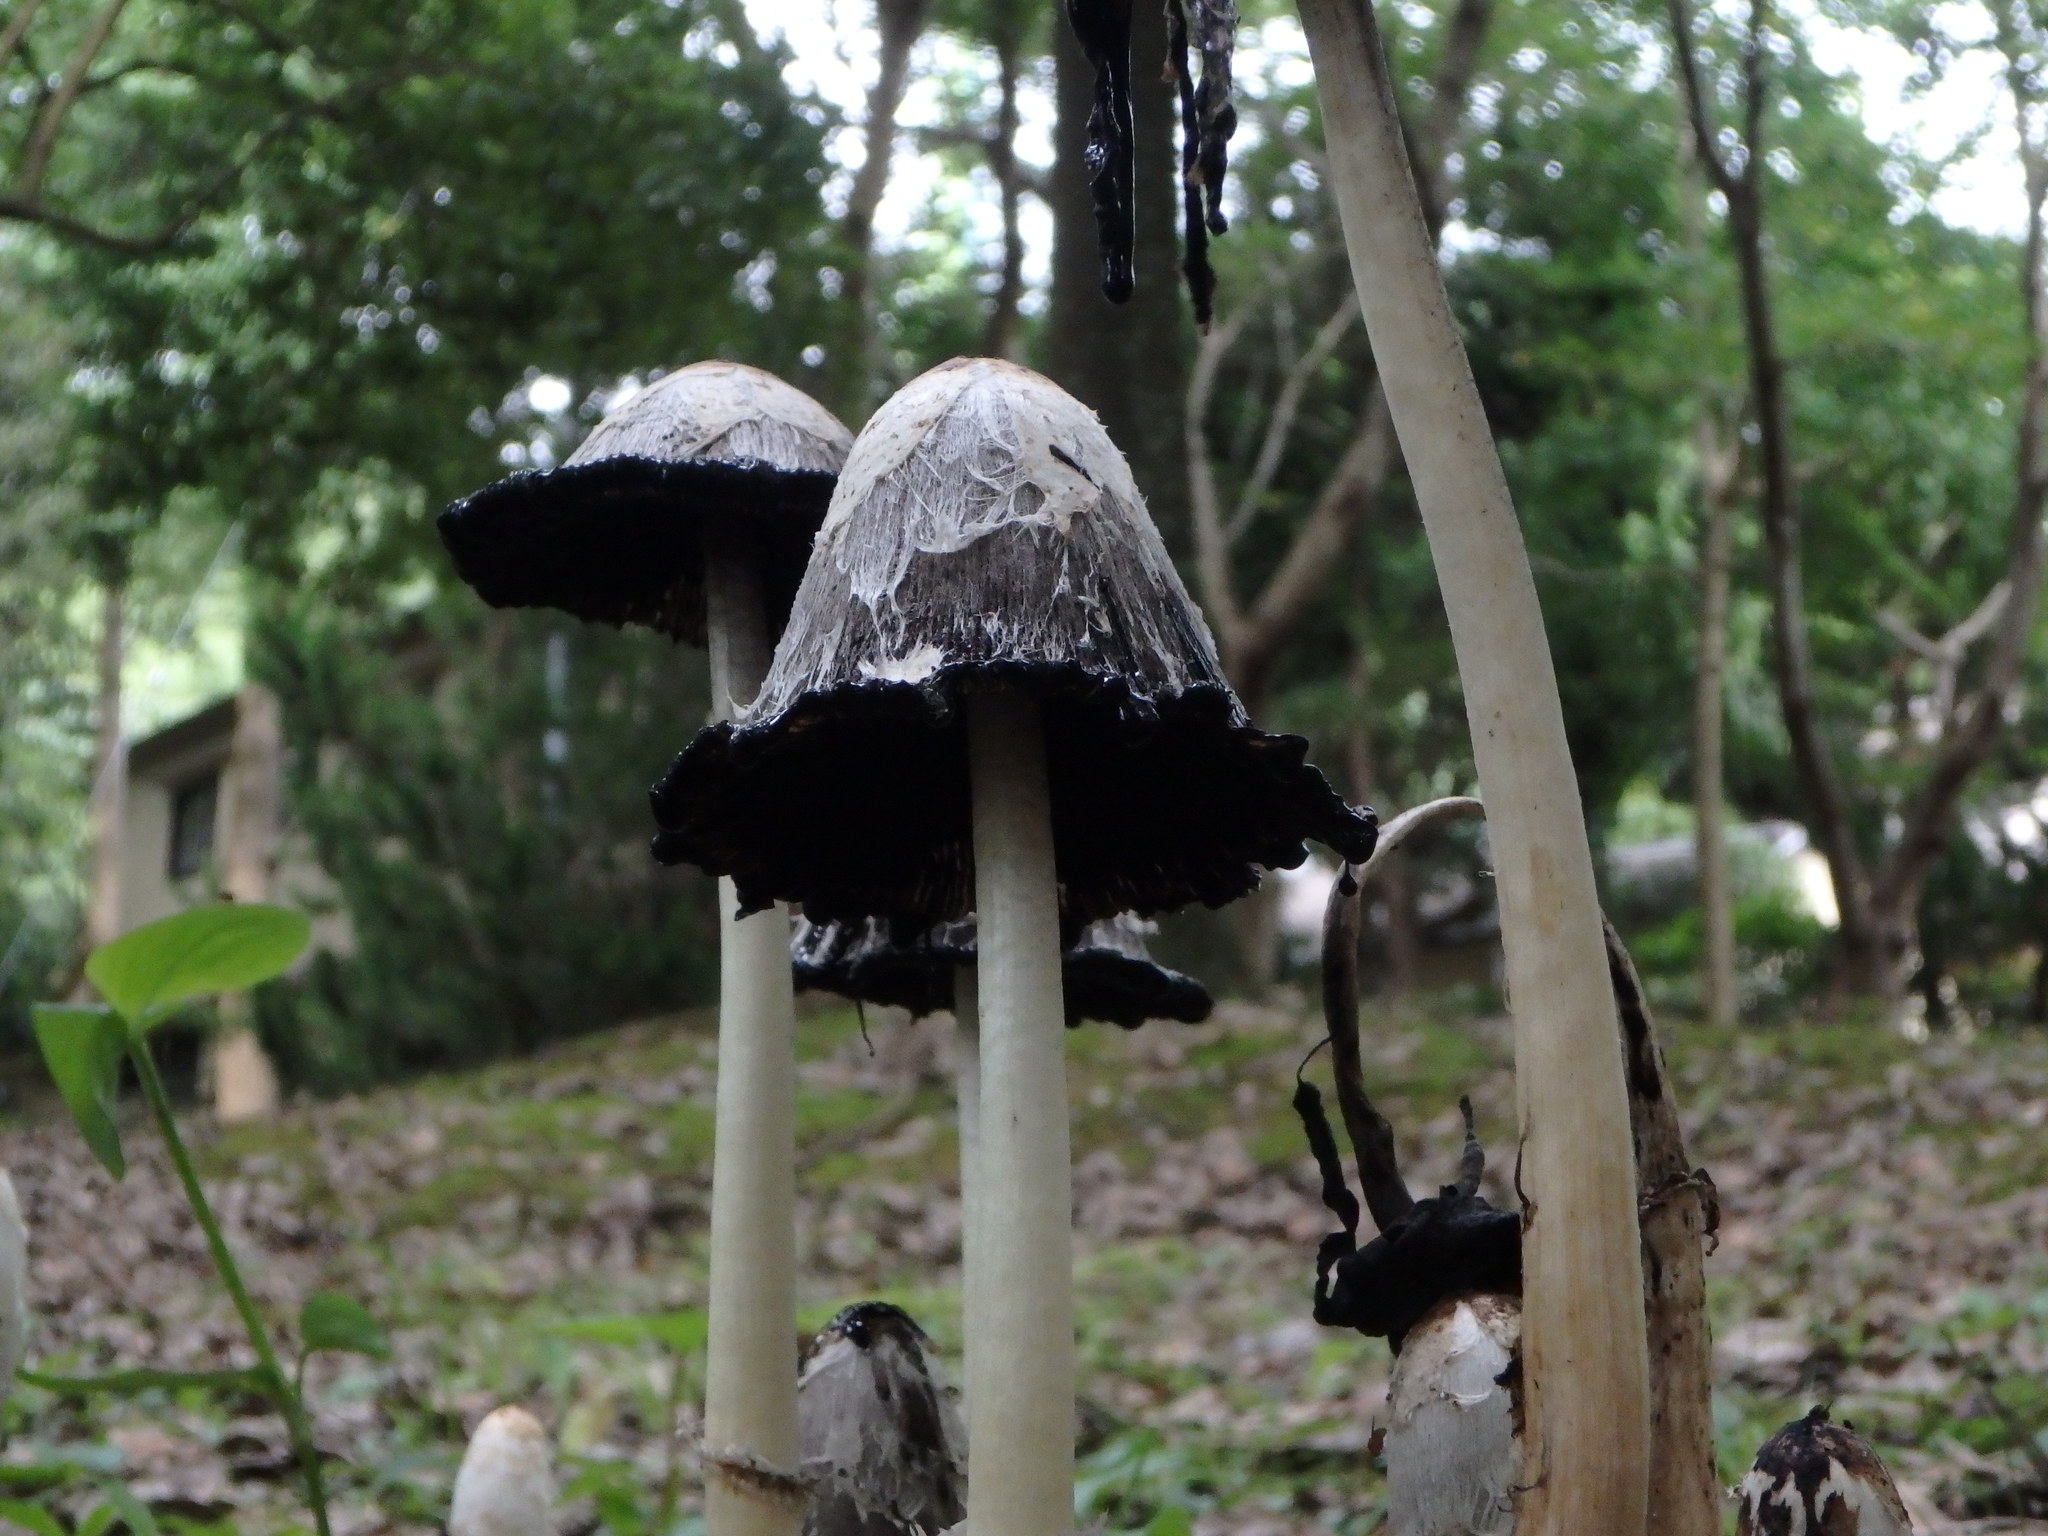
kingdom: Fungi
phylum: Basidiomycota
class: Agaricomycetes
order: Agaricales
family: Agaricaceae
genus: Coprinus
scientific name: Coprinus comatus
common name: Lawyer's wig
